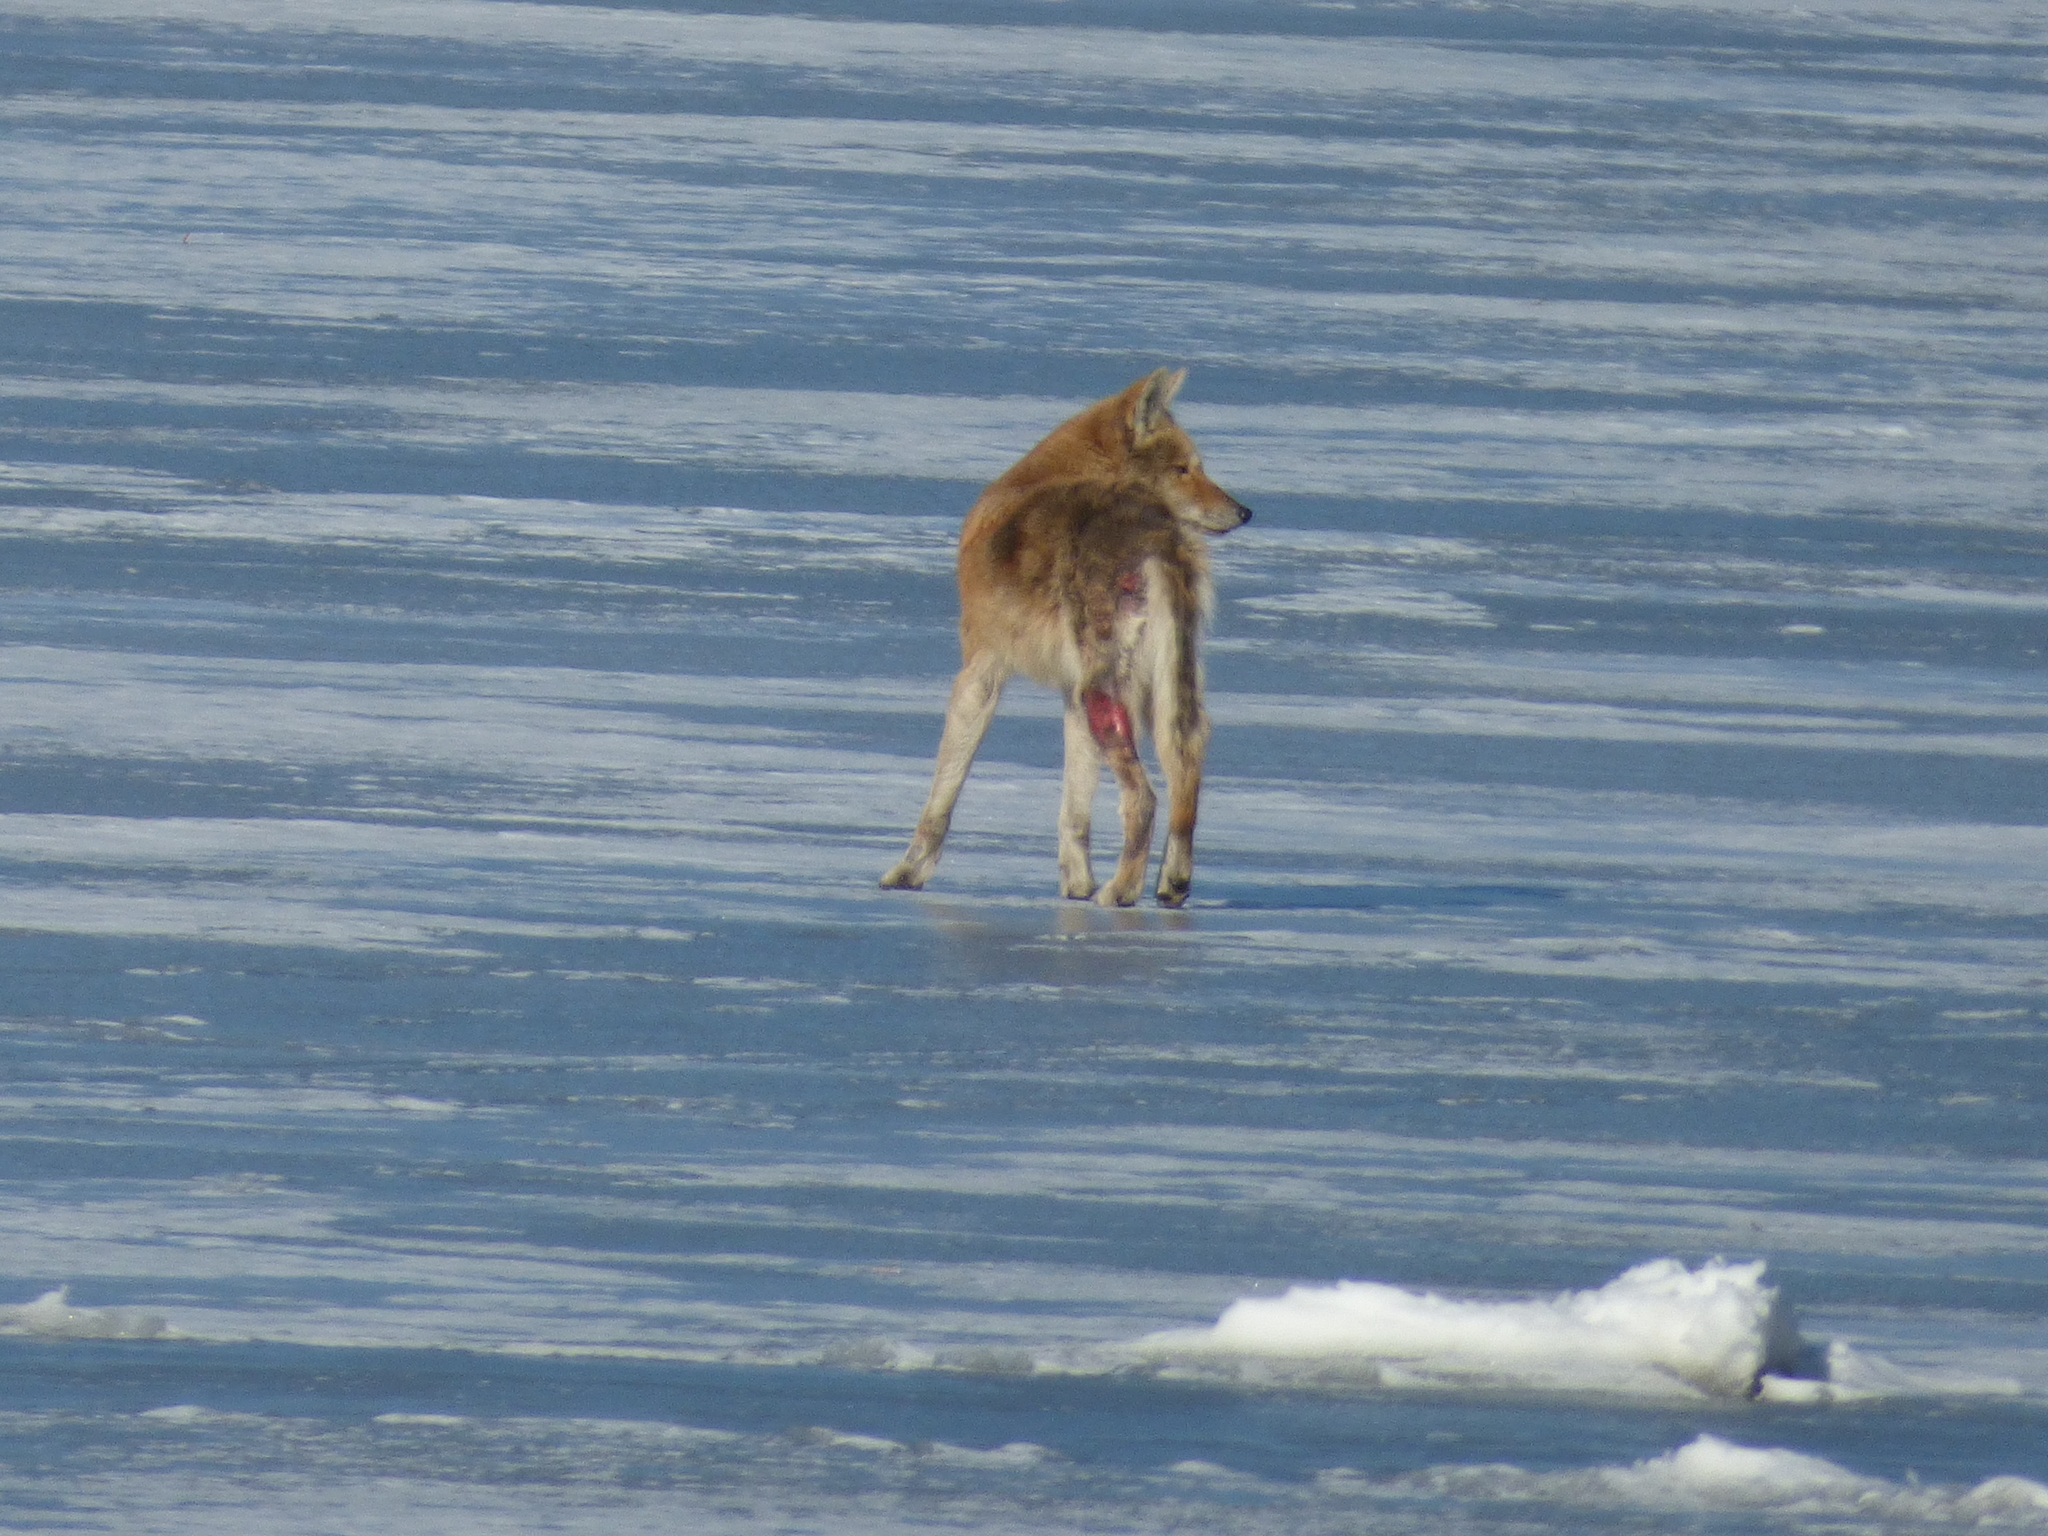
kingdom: Animalia
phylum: Chordata
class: Mammalia
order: Carnivora
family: Canidae
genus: Canis
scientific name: Canis latrans
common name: Coyote
